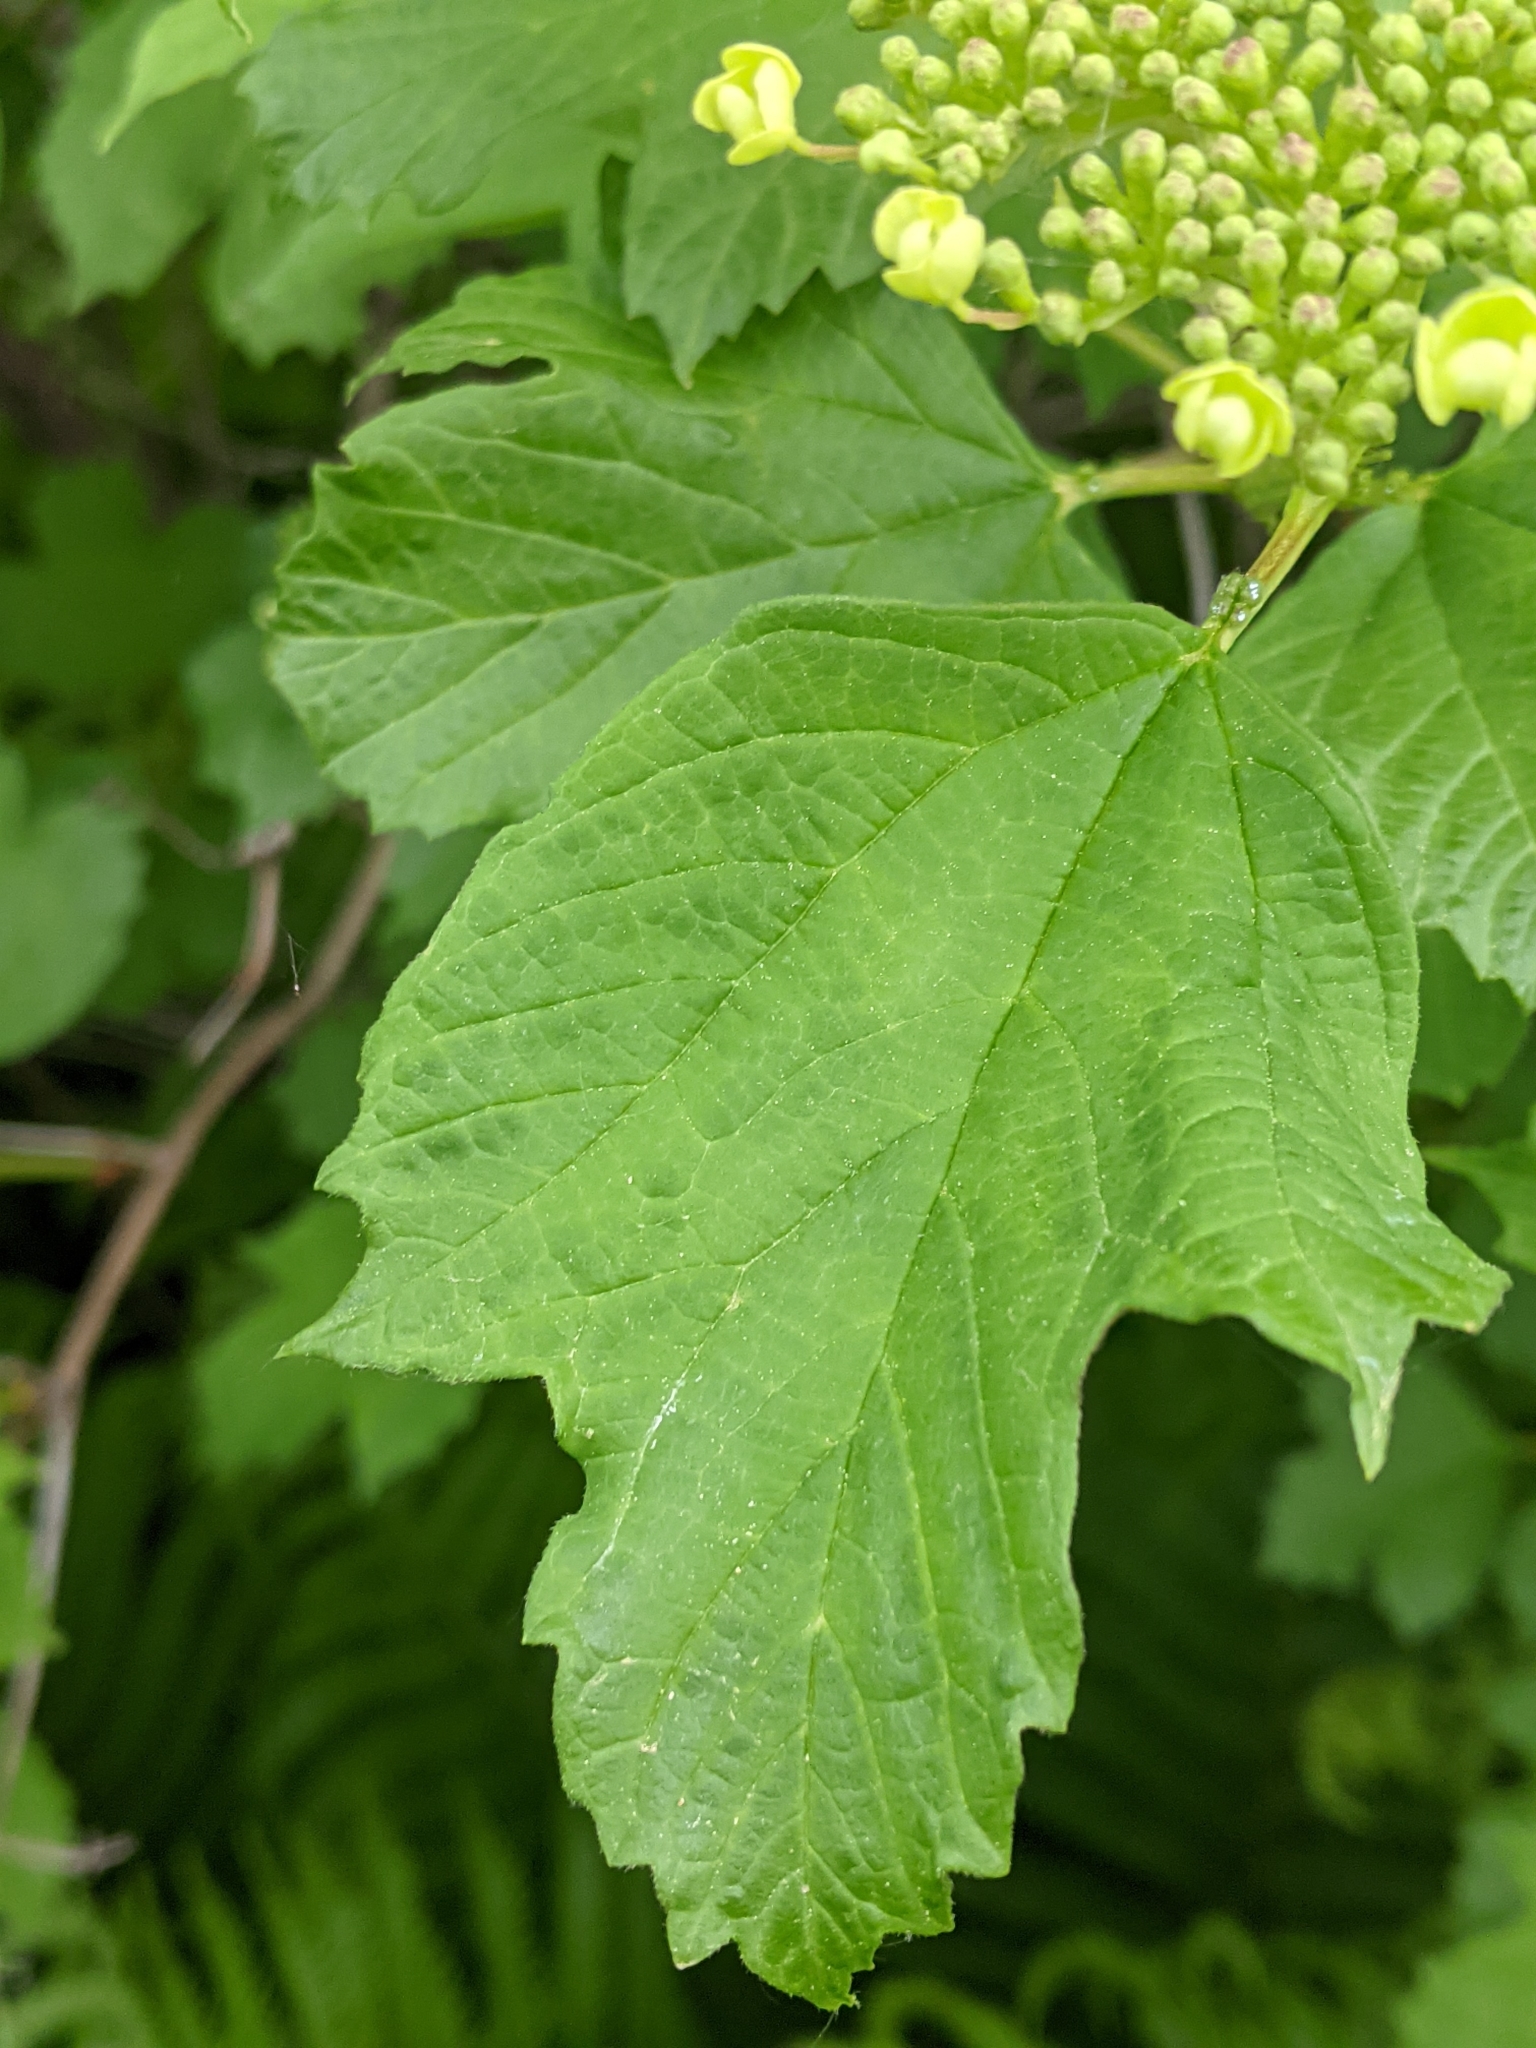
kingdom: Plantae
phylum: Tracheophyta
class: Magnoliopsida
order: Dipsacales
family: Viburnaceae
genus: Viburnum
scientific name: Viburnum opulus
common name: Guelder-rose
